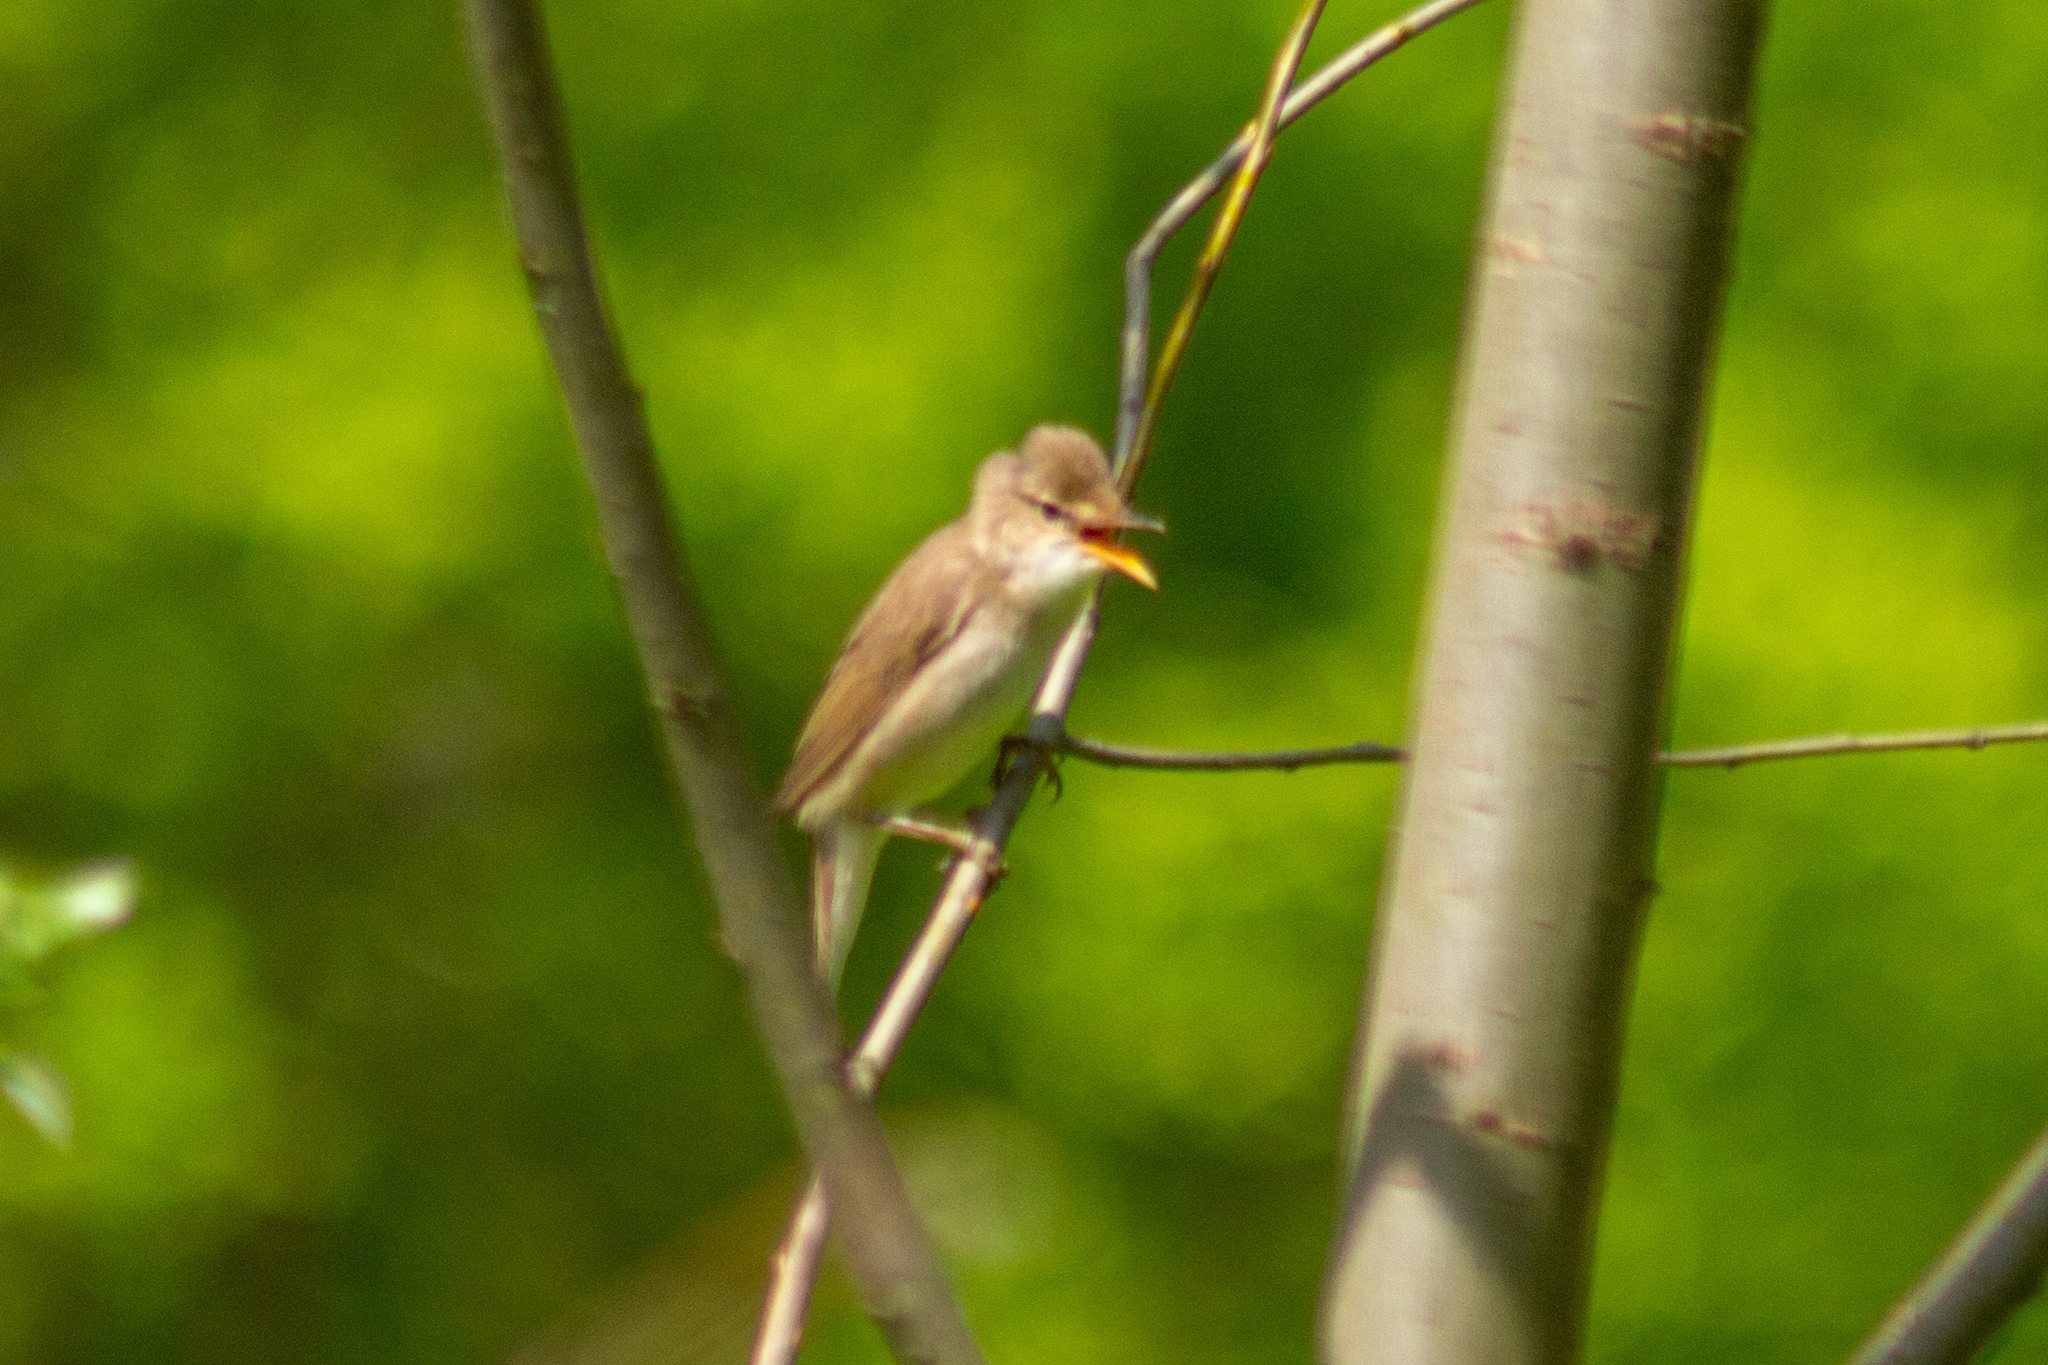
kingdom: Animalia
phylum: Chordata
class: Aves
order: Passeriformes
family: Acrocephalidae
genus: Acrocephalus
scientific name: Acrocephalus palustris
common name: Marsh warbler
